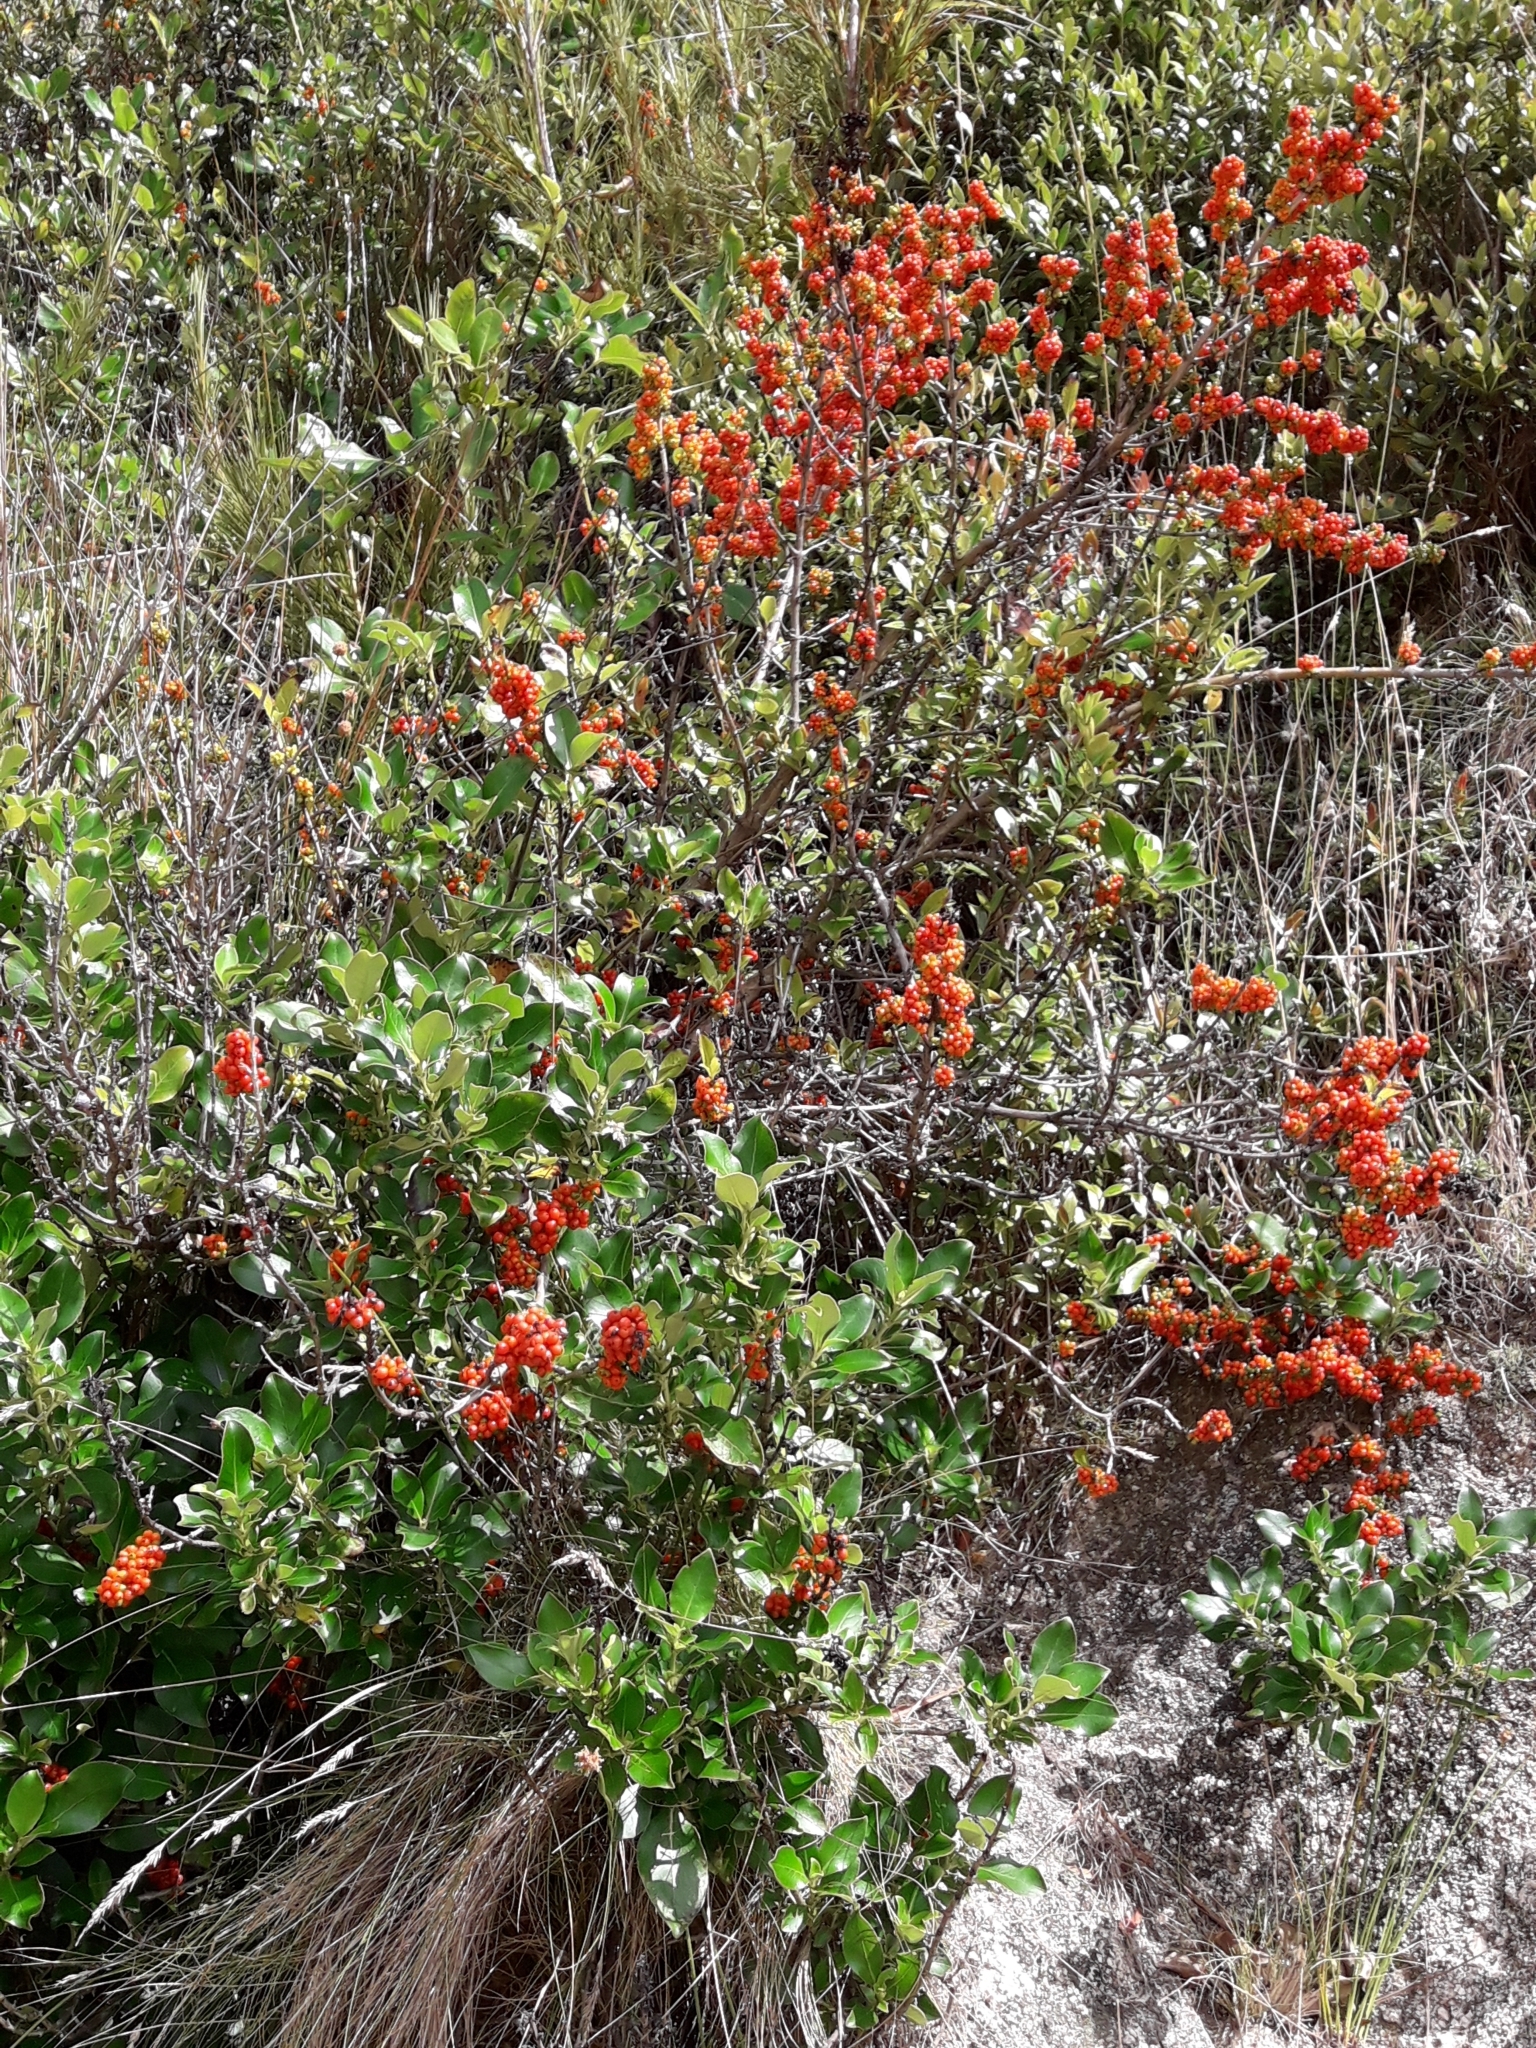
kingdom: Plantae
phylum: Tracheophyta
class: Magnoliopsida
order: Gentianales
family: Rubiaceae
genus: Coprosma
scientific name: Coprosma robusta
